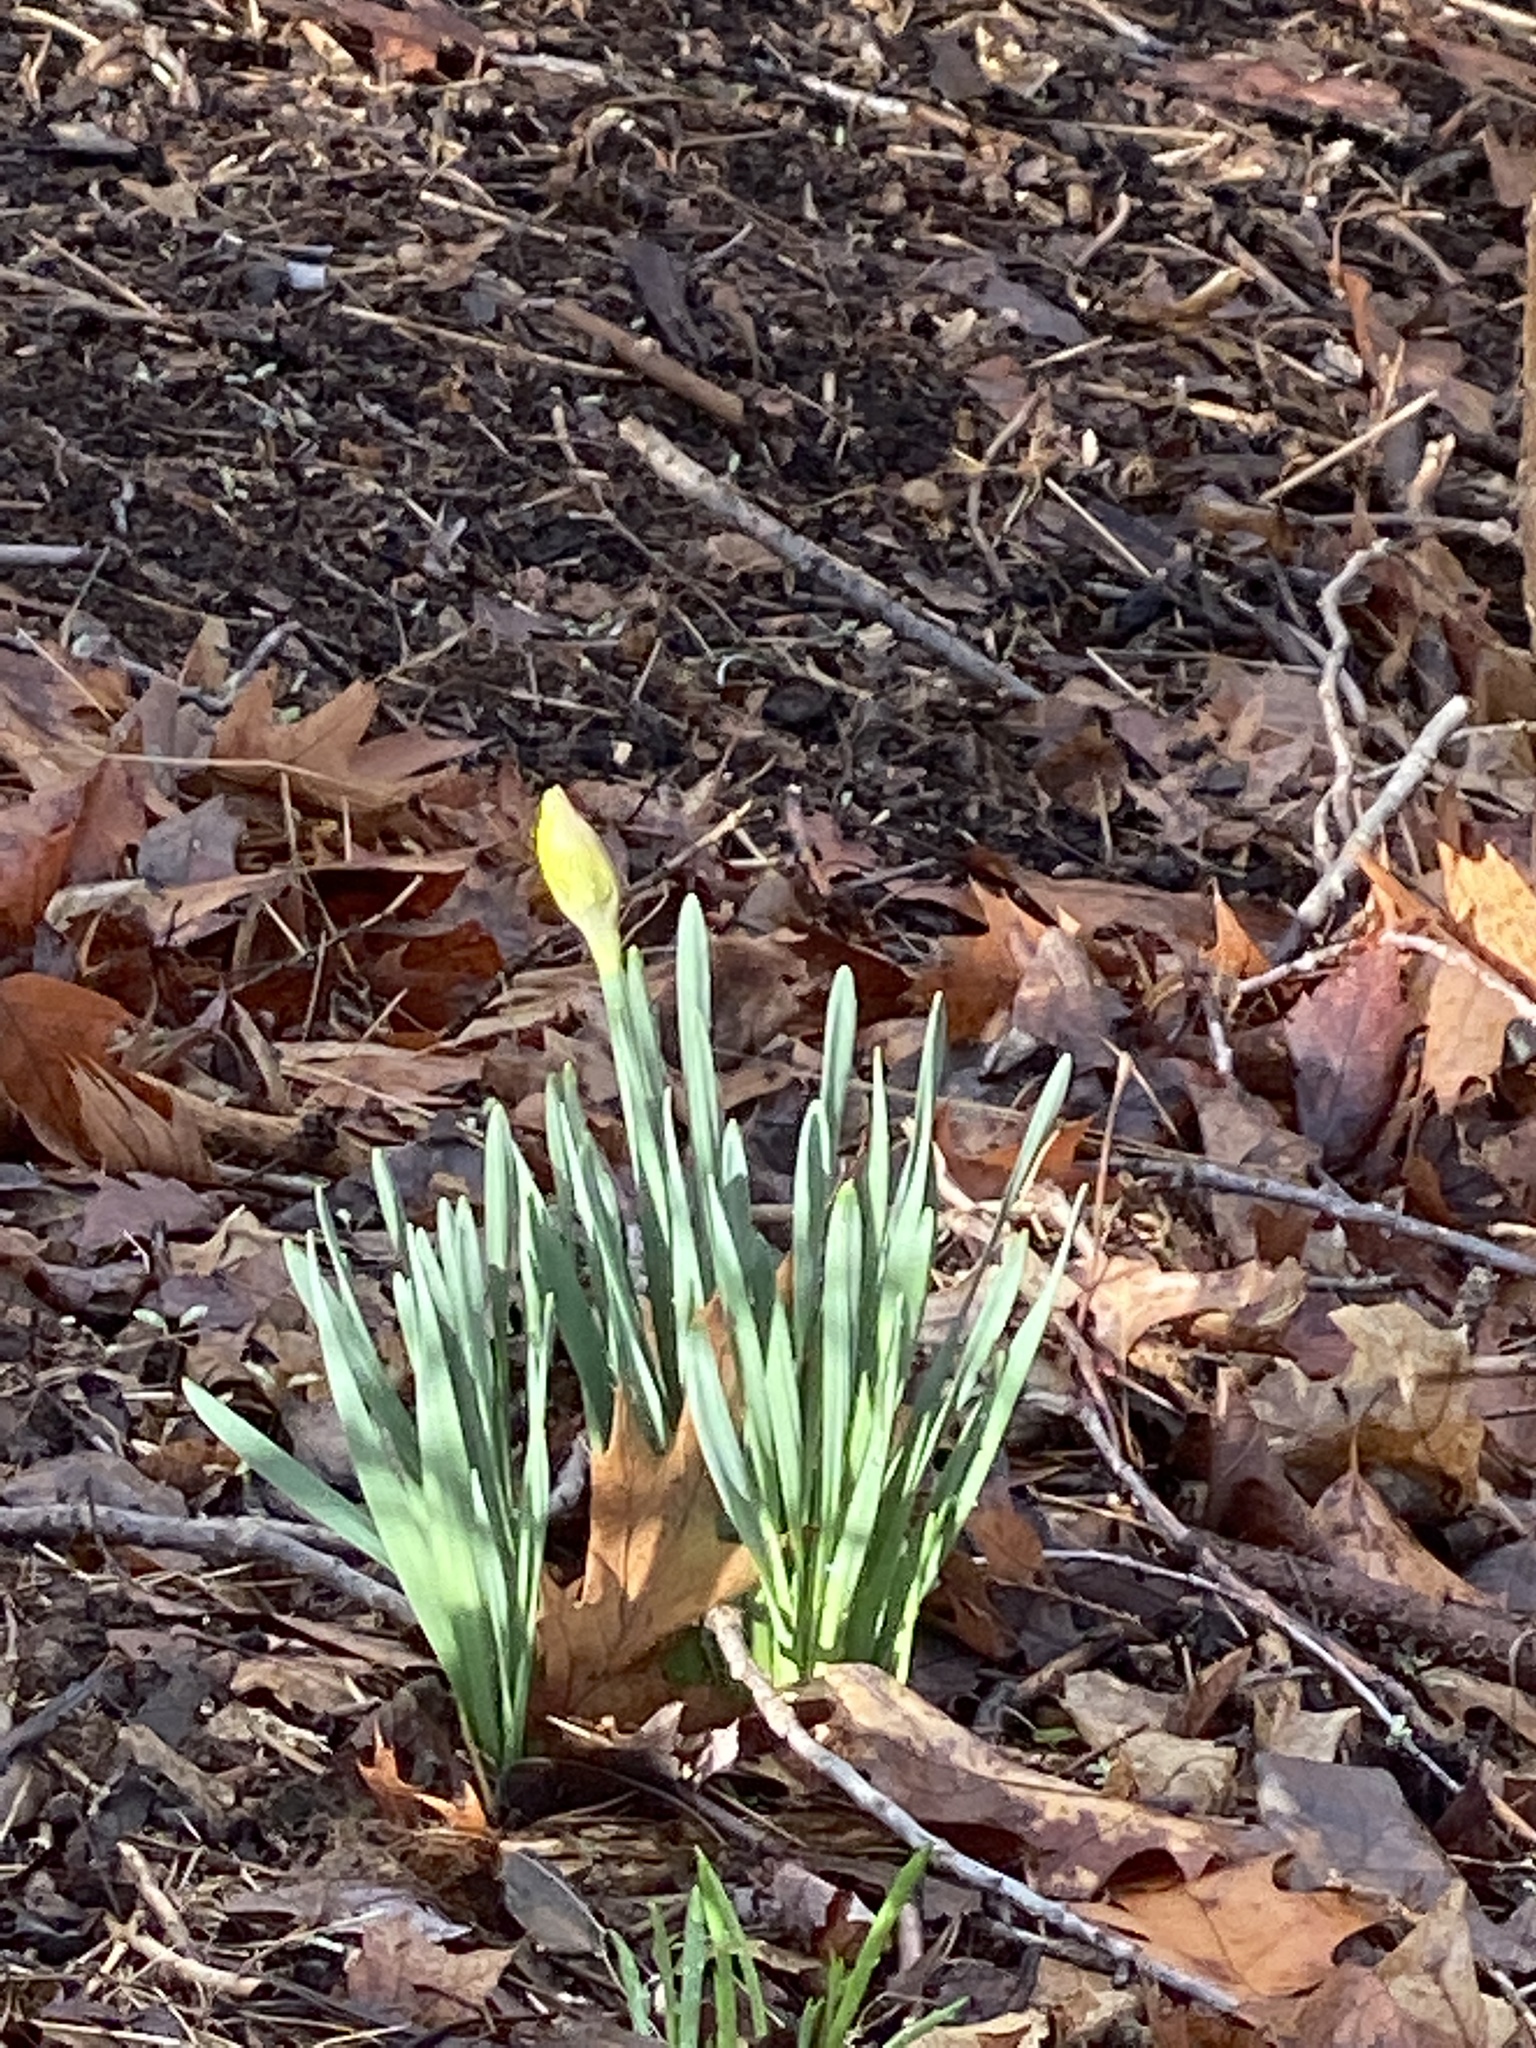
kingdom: Plantae
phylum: Tracheophyta
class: Liliopsida
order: Asparagales
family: Amaryllidaceae
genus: Narcissus
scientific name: Narcissus
